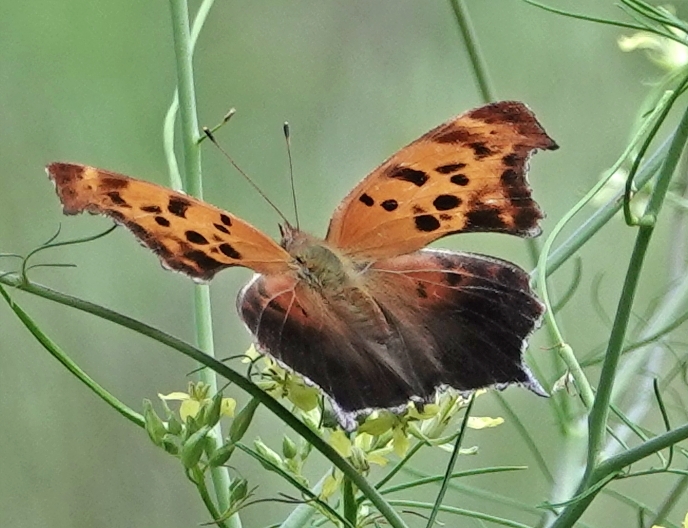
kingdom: Animalia
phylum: Arthropoda
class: Insecta
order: Lepidoptera
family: Nymphalidae
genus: Polygonia
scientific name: Polygonia interrogationis
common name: Question mark
